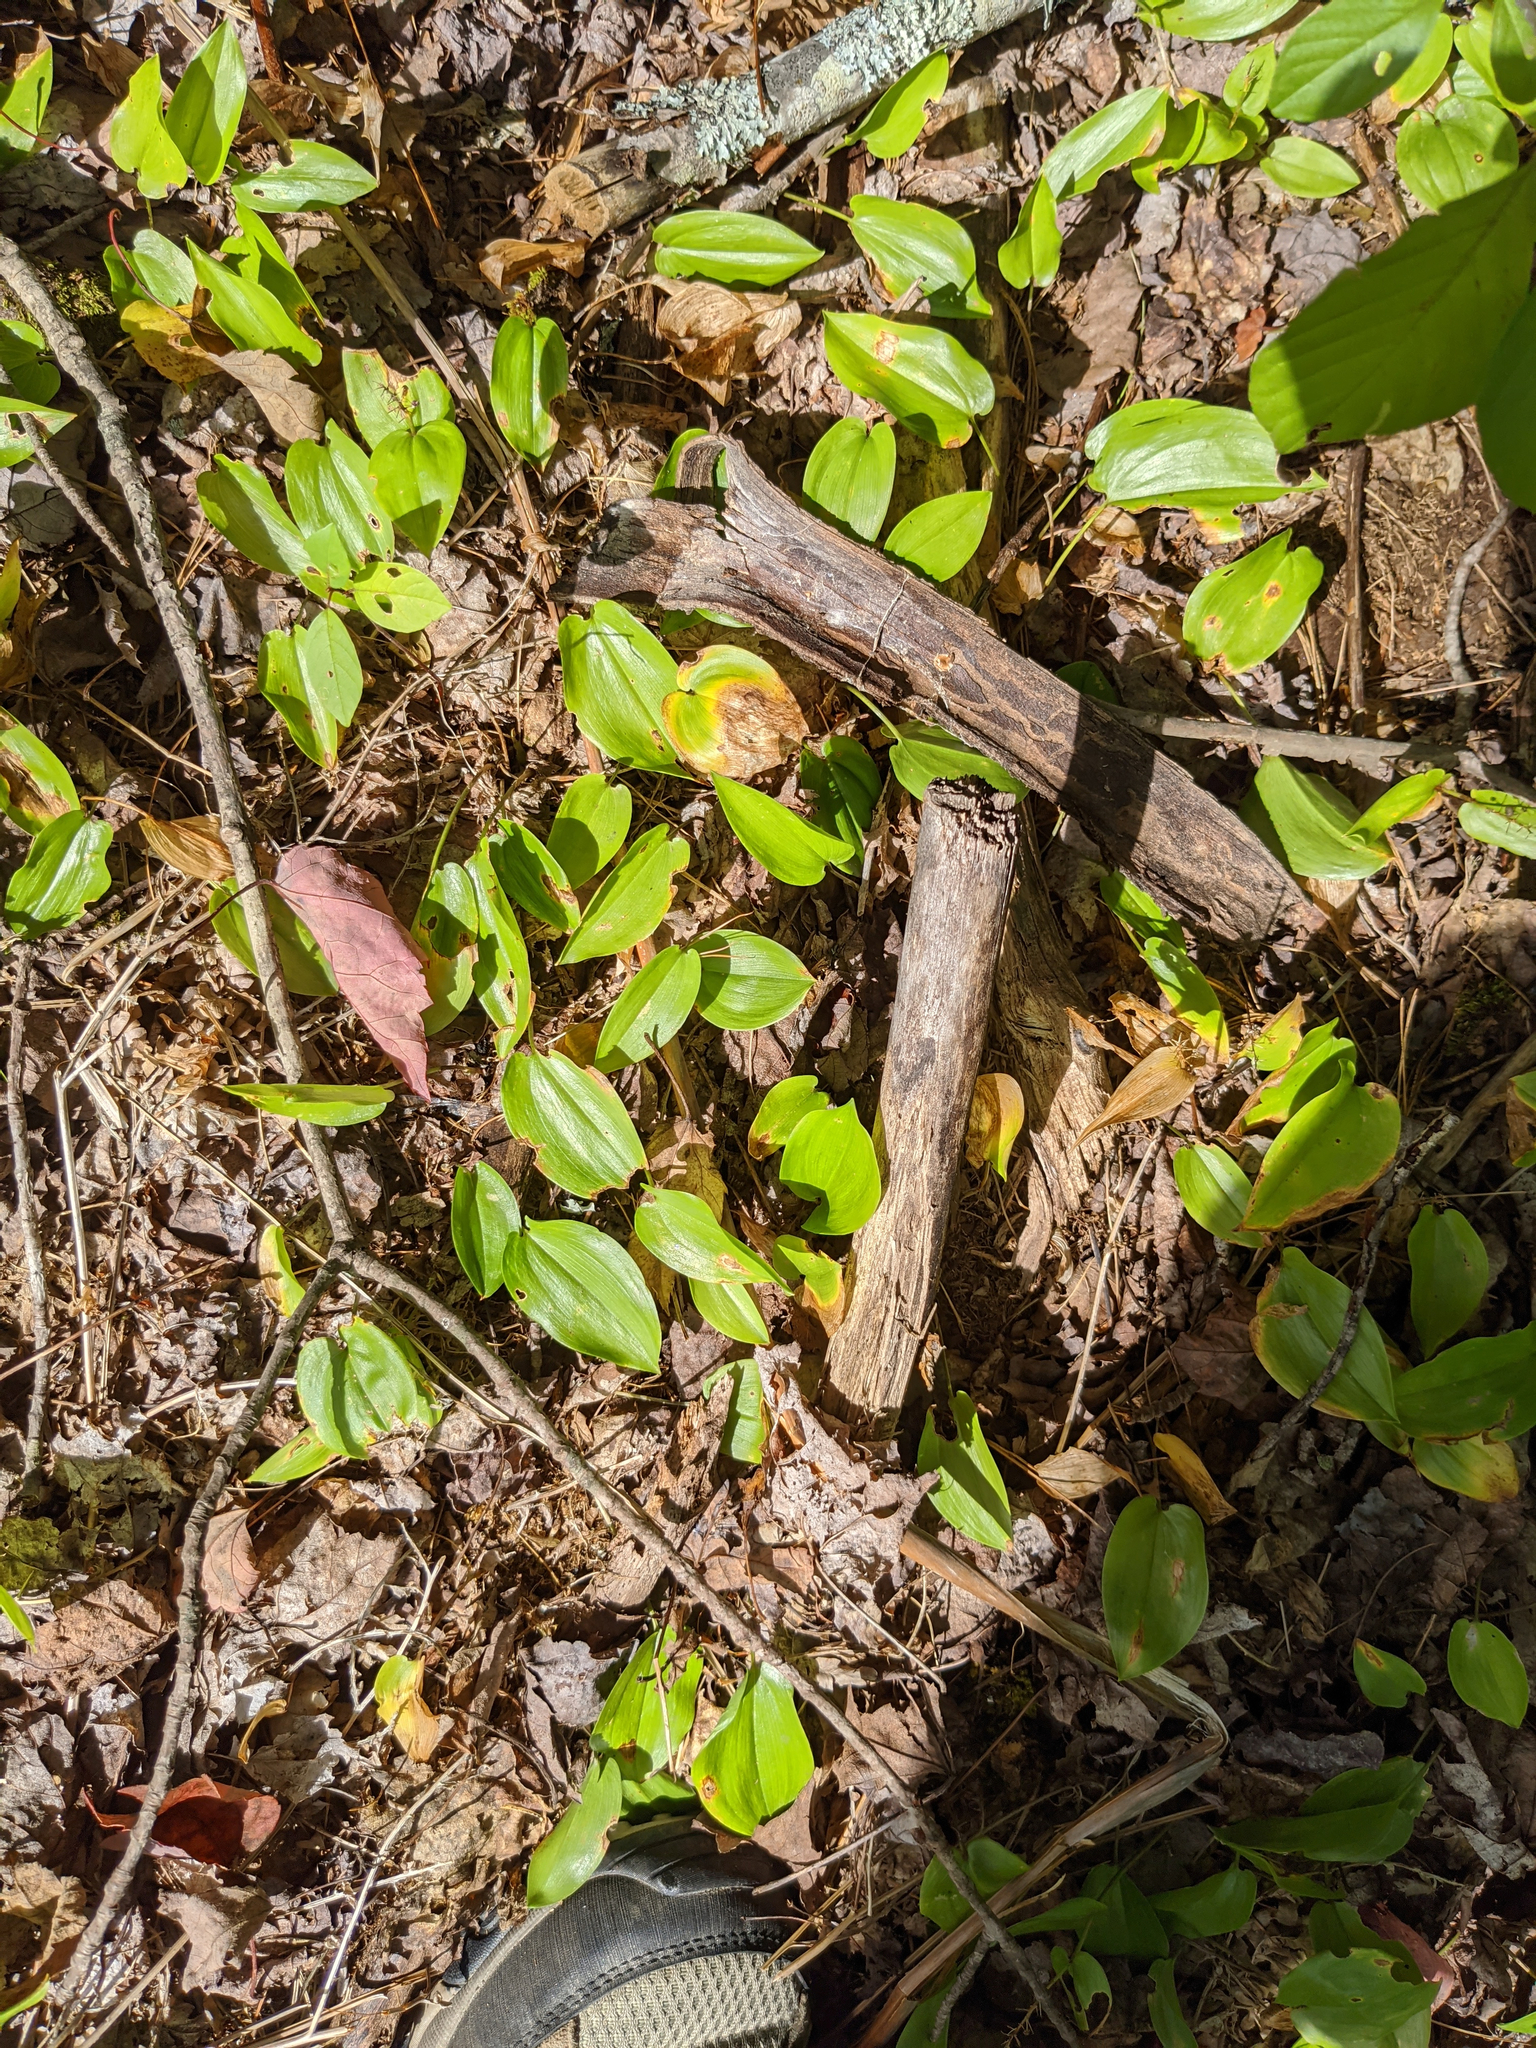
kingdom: Plantae
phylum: Tracheophyta
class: Liliopsida
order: Asparagales
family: Asparagaceae
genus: Maianthemum
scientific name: Maianthemum canadense
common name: False lily-of-the-valley
